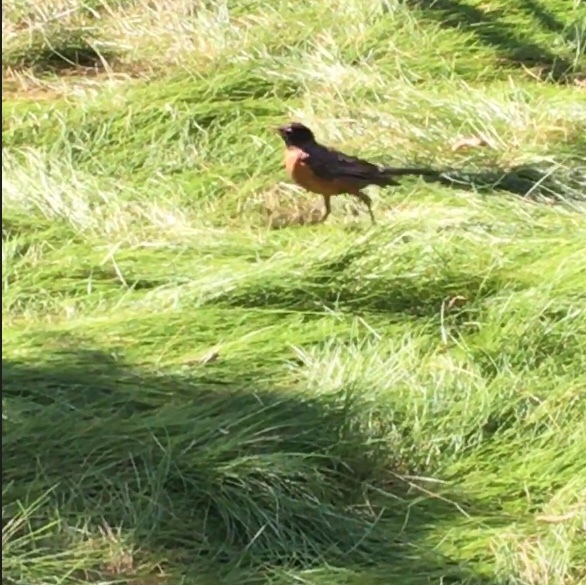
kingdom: Animalia
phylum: Chordata
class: Aves
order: Passeriformes
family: Turdidae
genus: Turdus
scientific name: Turdus migratorius
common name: American robin
